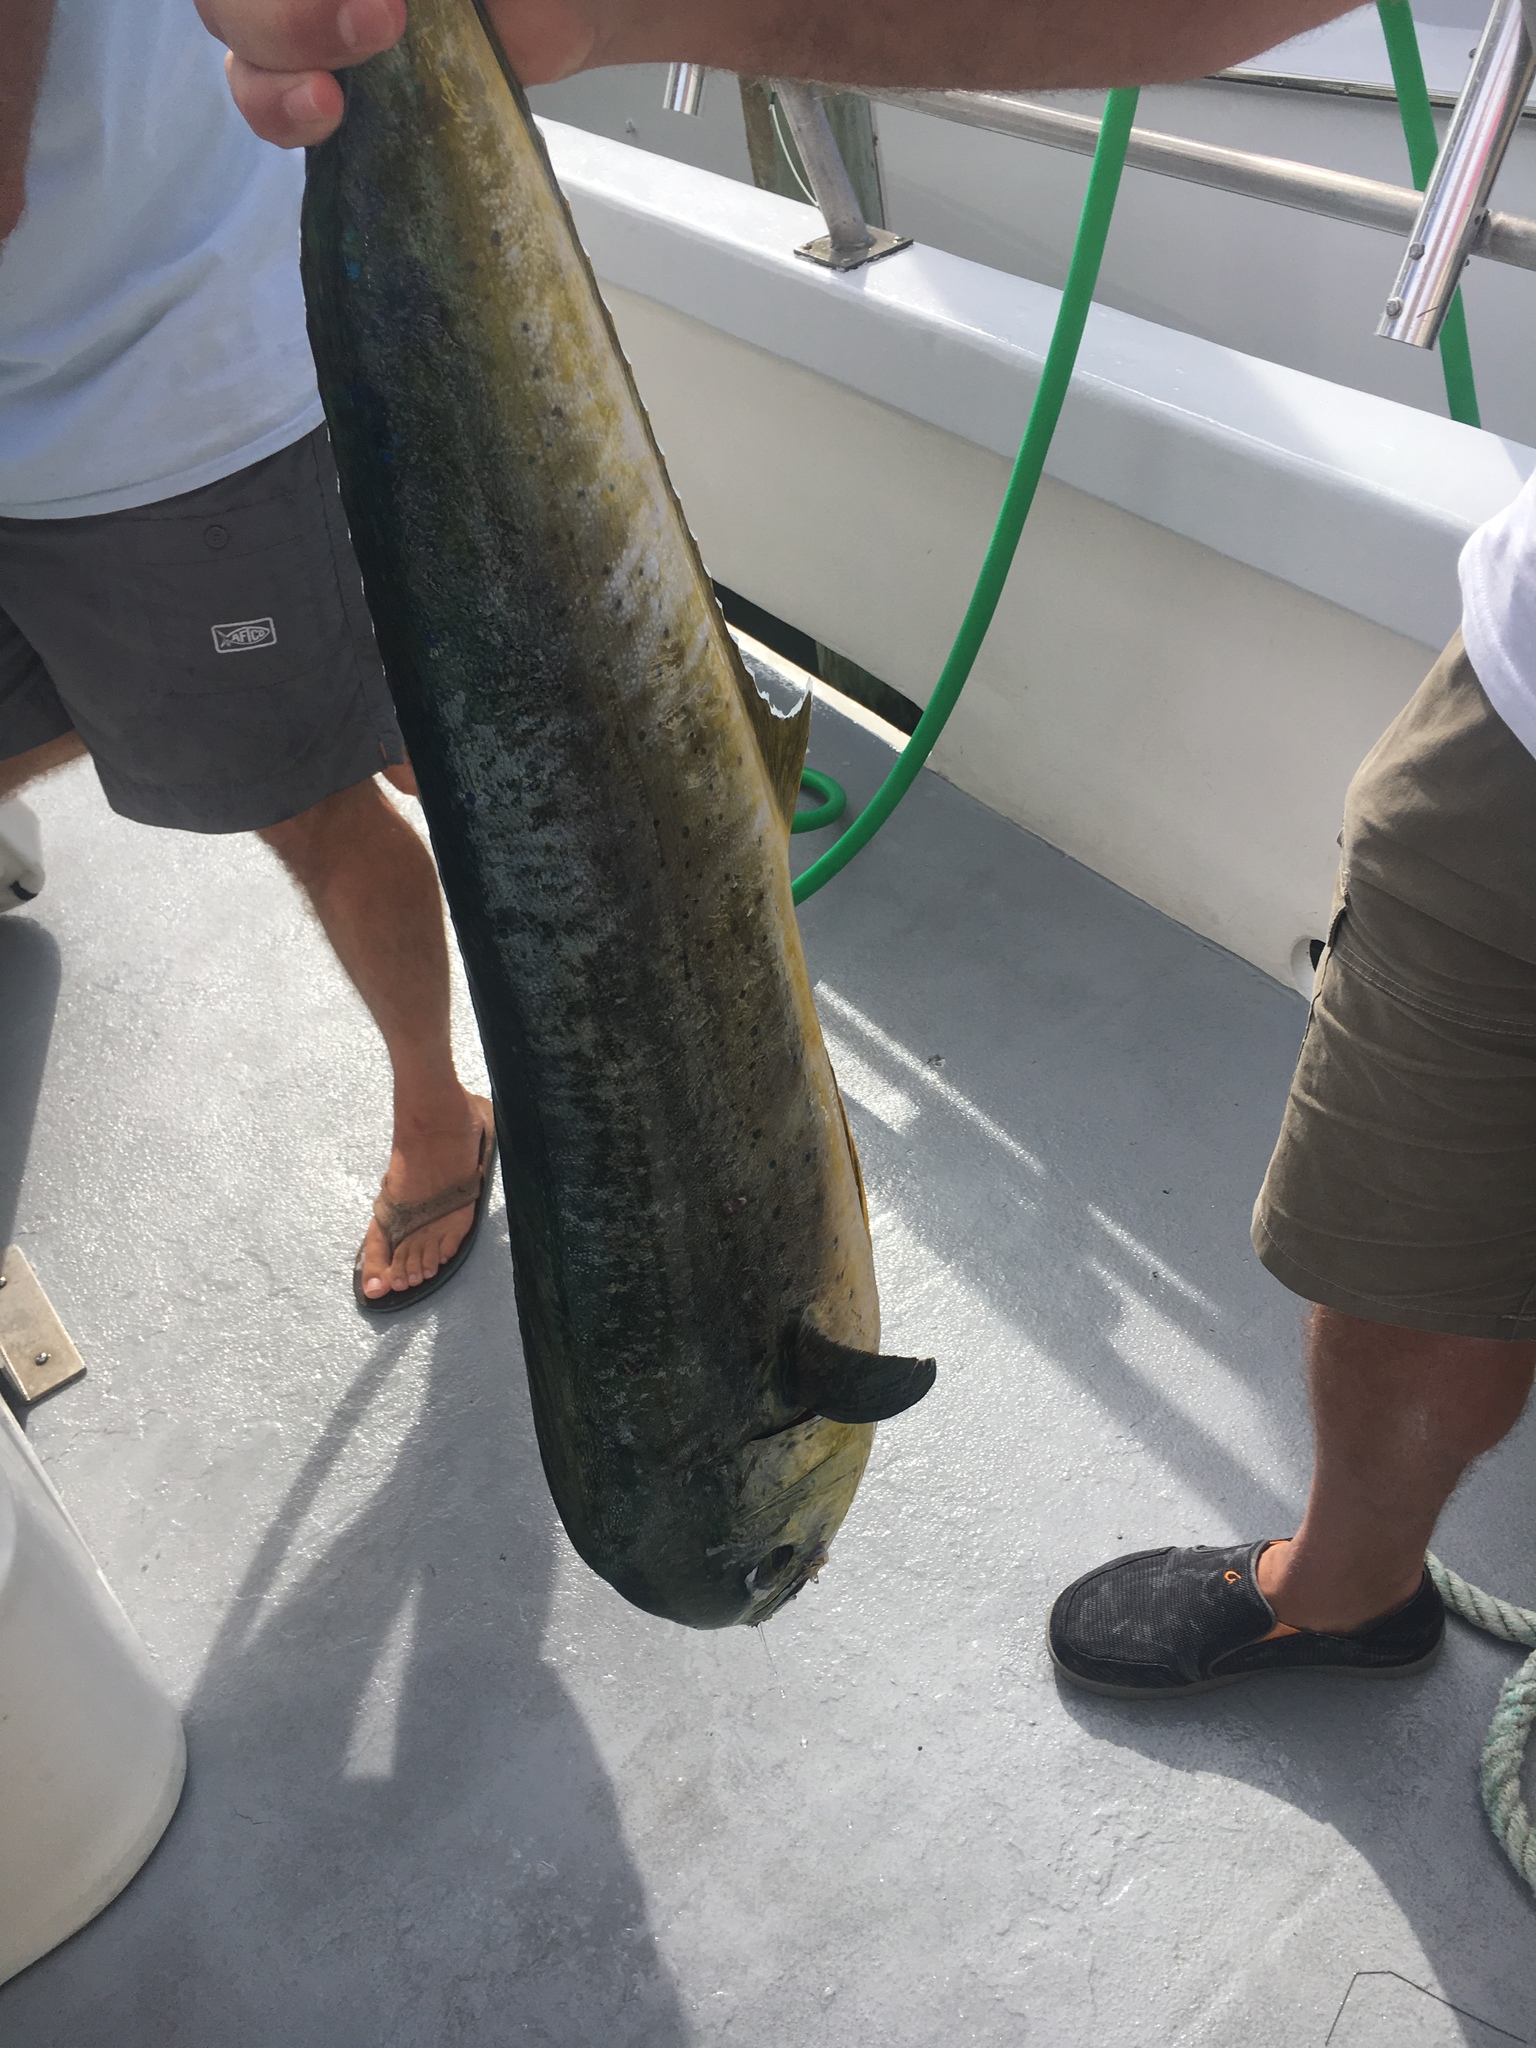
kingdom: Animalia
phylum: Chordata
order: Perciformes
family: Coryphaenidae
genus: Coryphaena
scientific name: Coryphaena hippurus
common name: Dolphin
